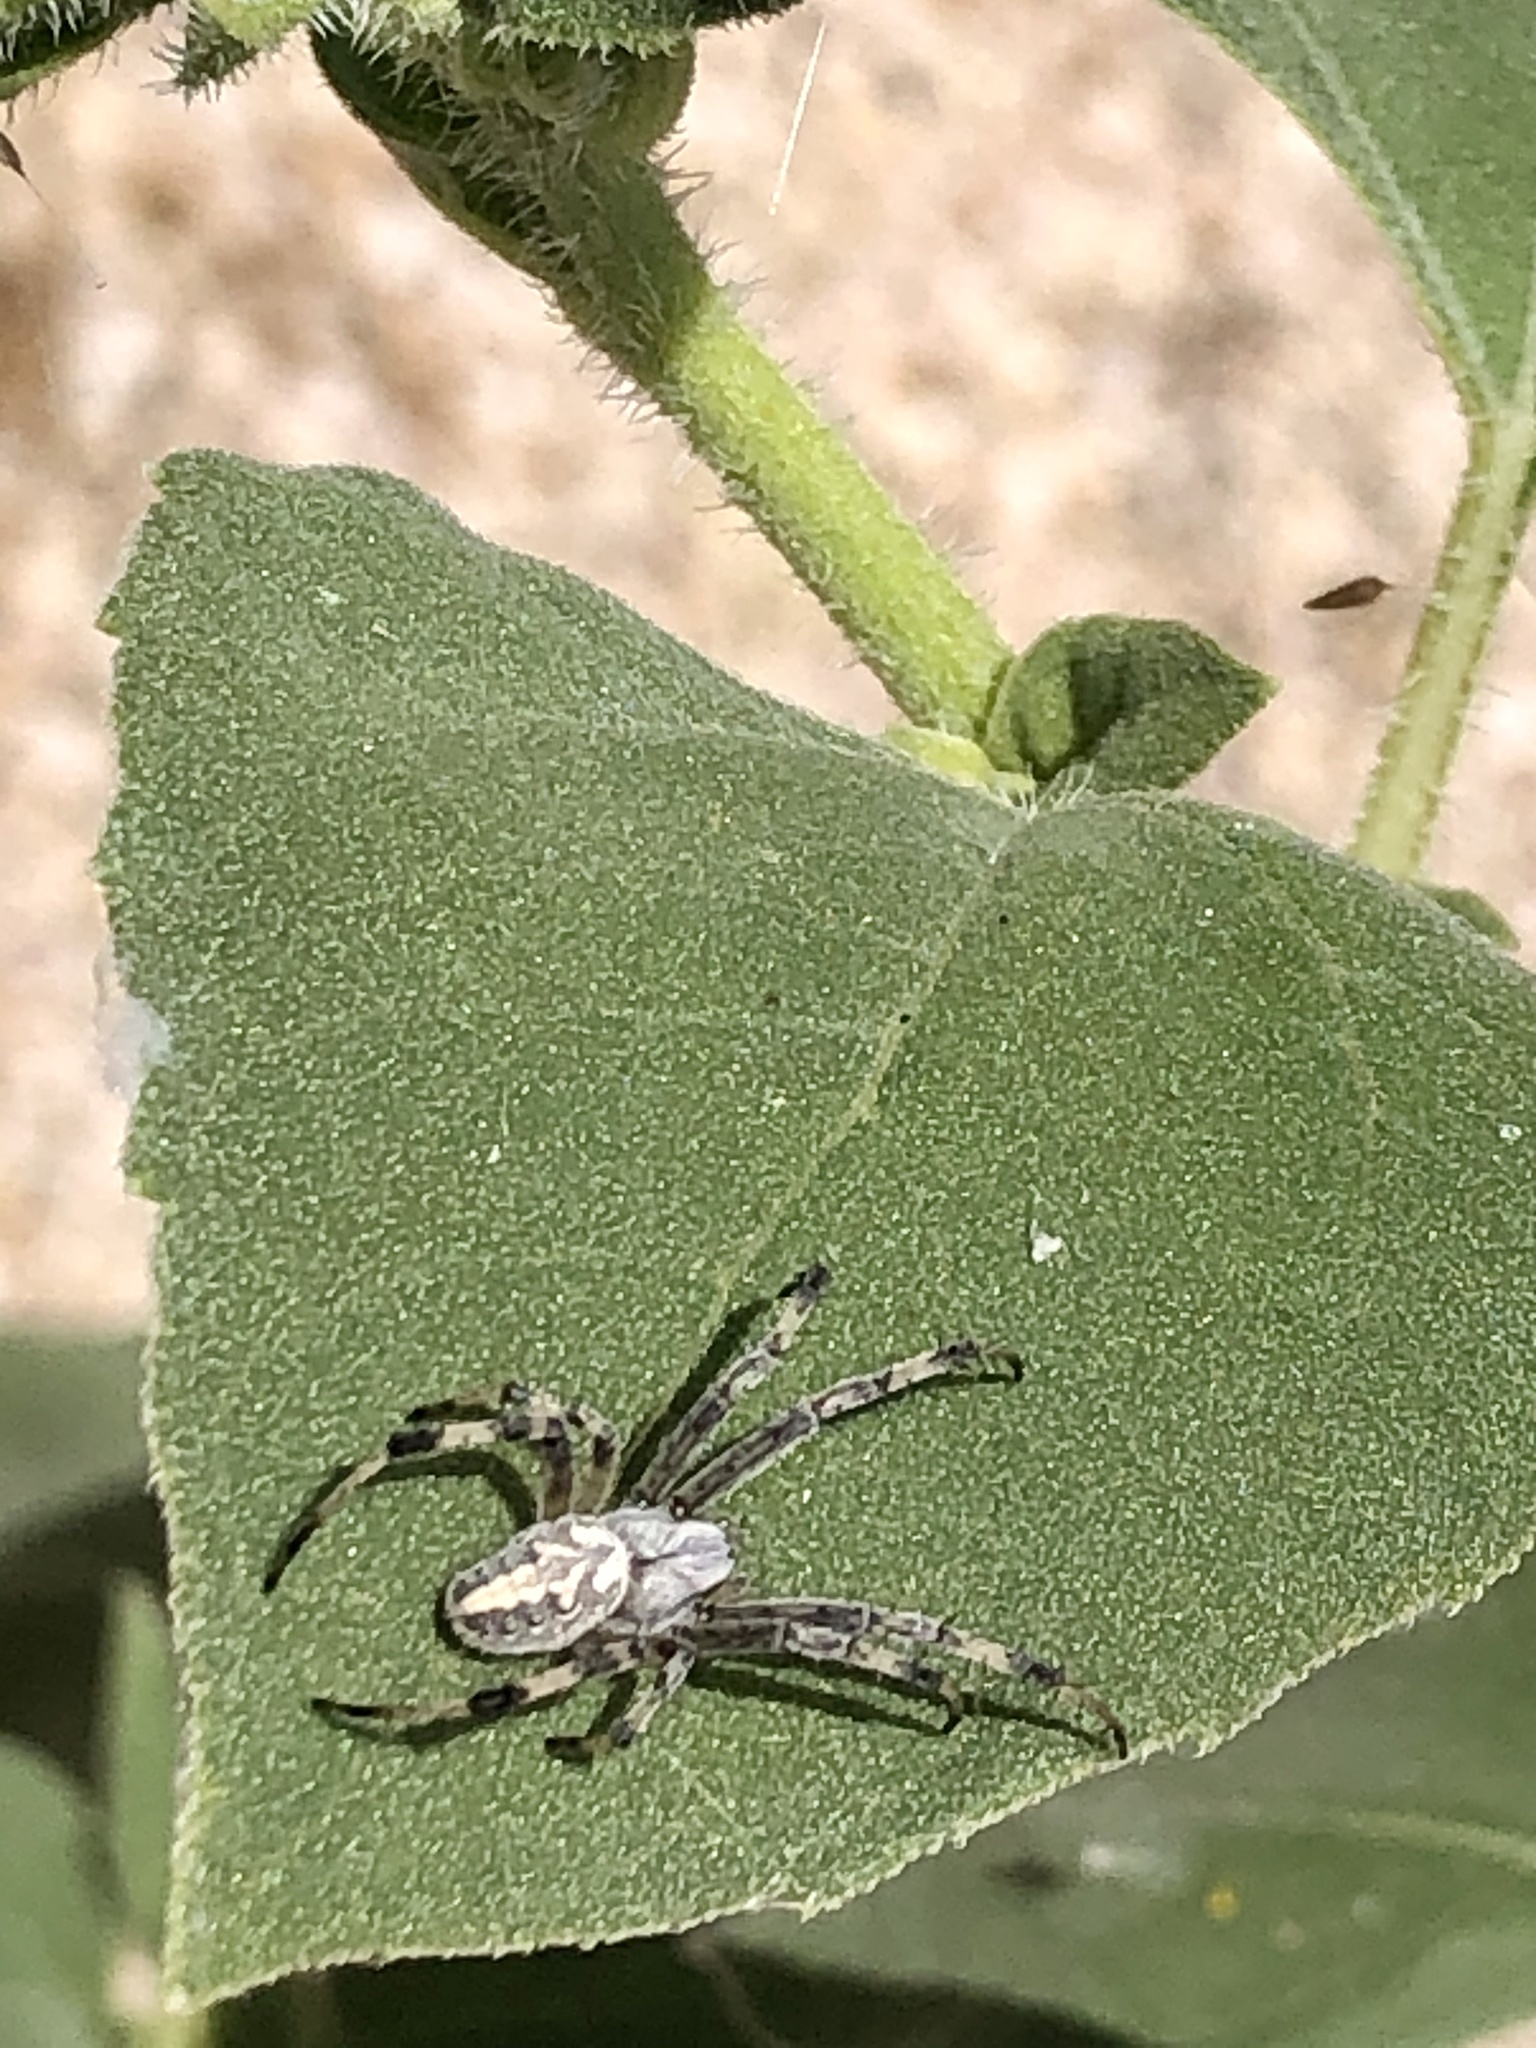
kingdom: Animalia
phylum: Arthropoda
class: Arachnida
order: Araneae
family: Araneidae
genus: Neoscona
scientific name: Neoscona oaxacensis
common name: Orb weavers
